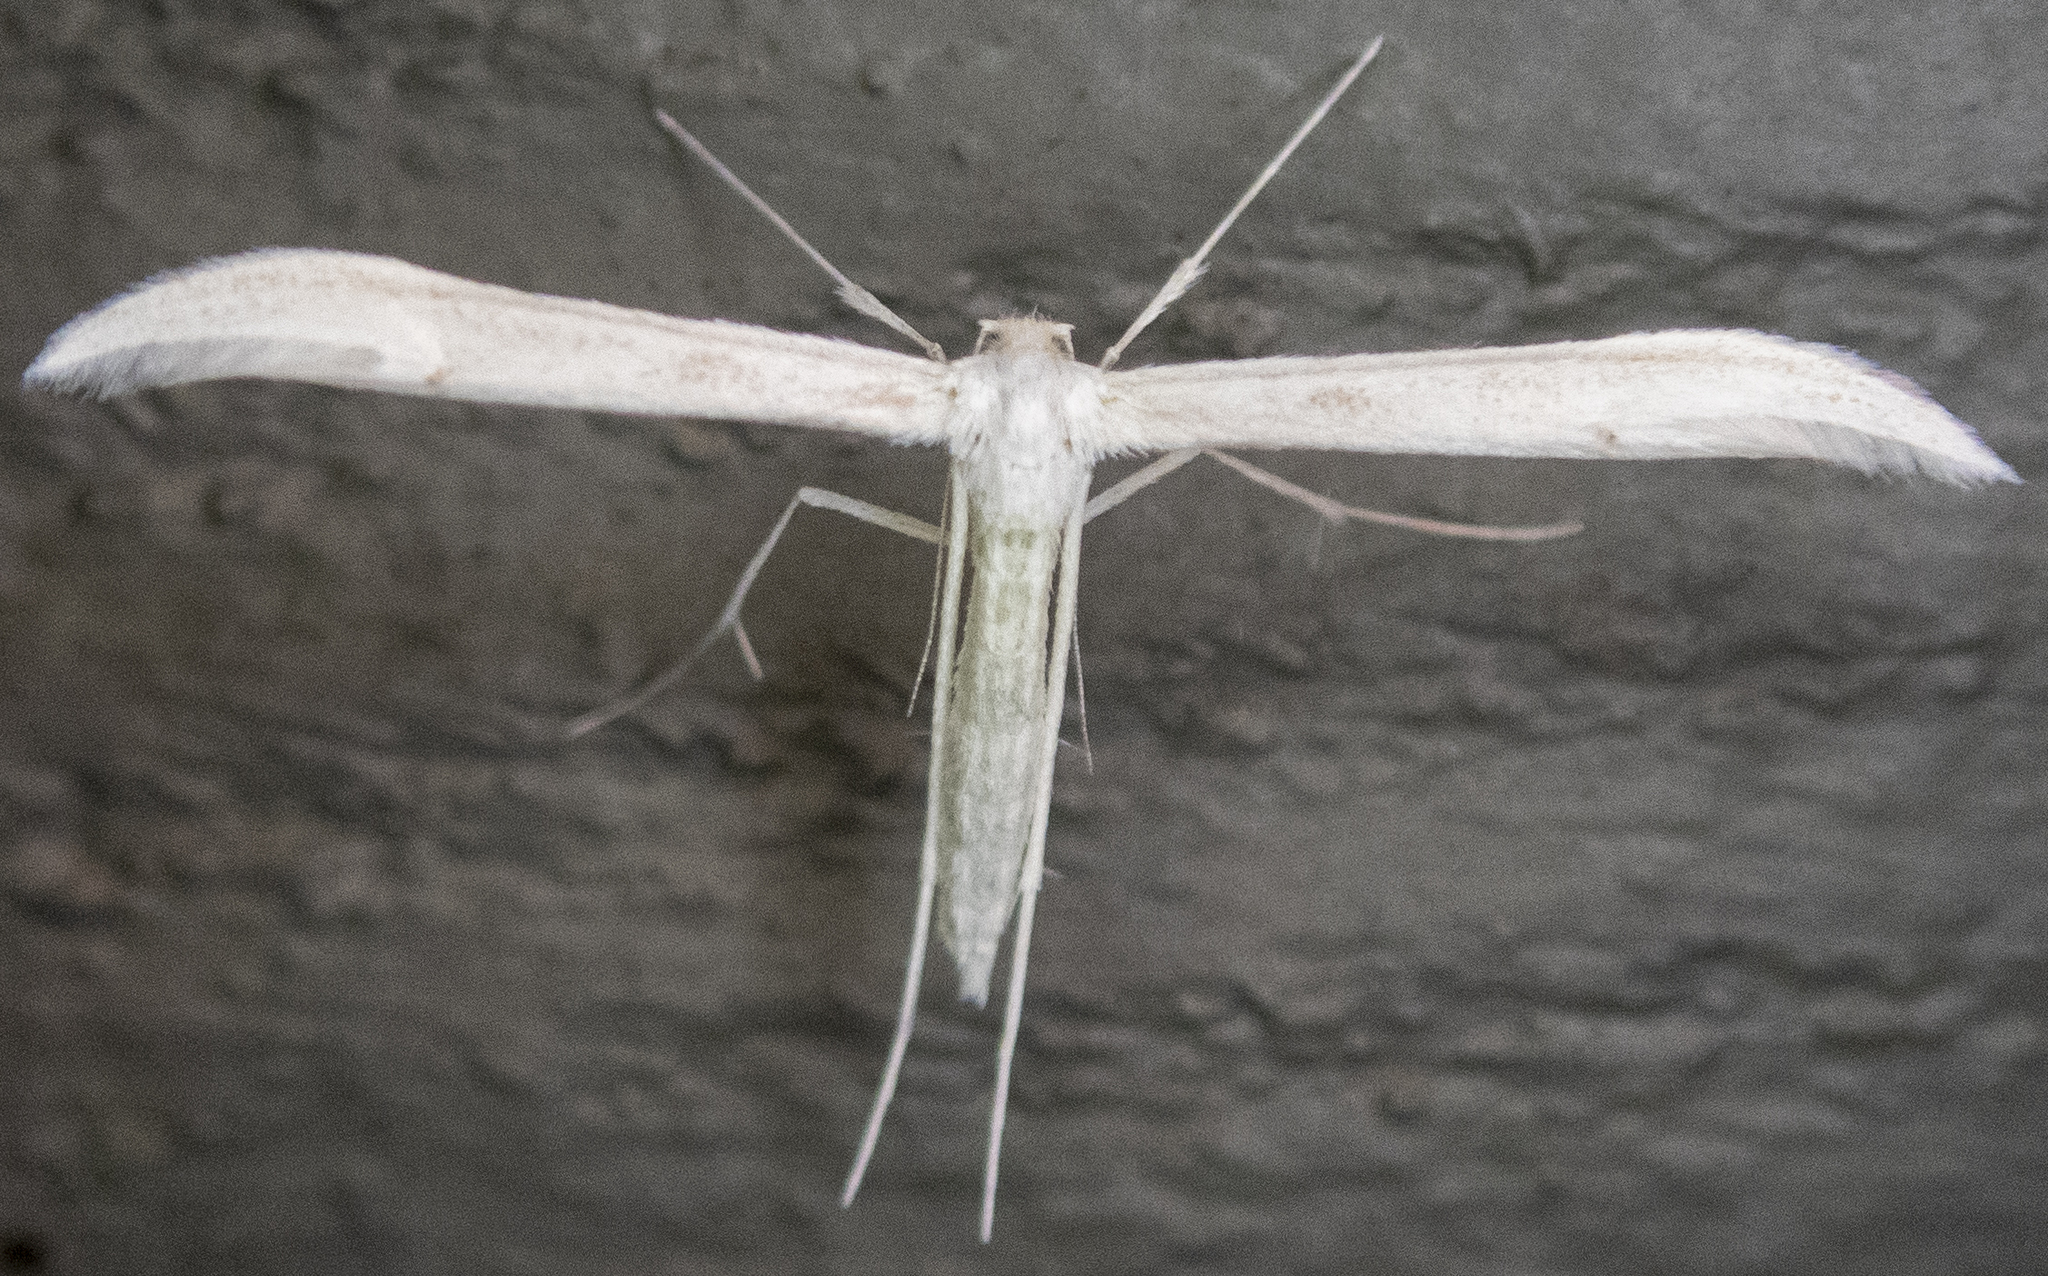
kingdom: Animalia
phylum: Arthropoda
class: Insecta
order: Lepidoptera
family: Pterophoridae
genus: Hellinsia
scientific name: Hellinsia homodactylus
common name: Plain plume moth
